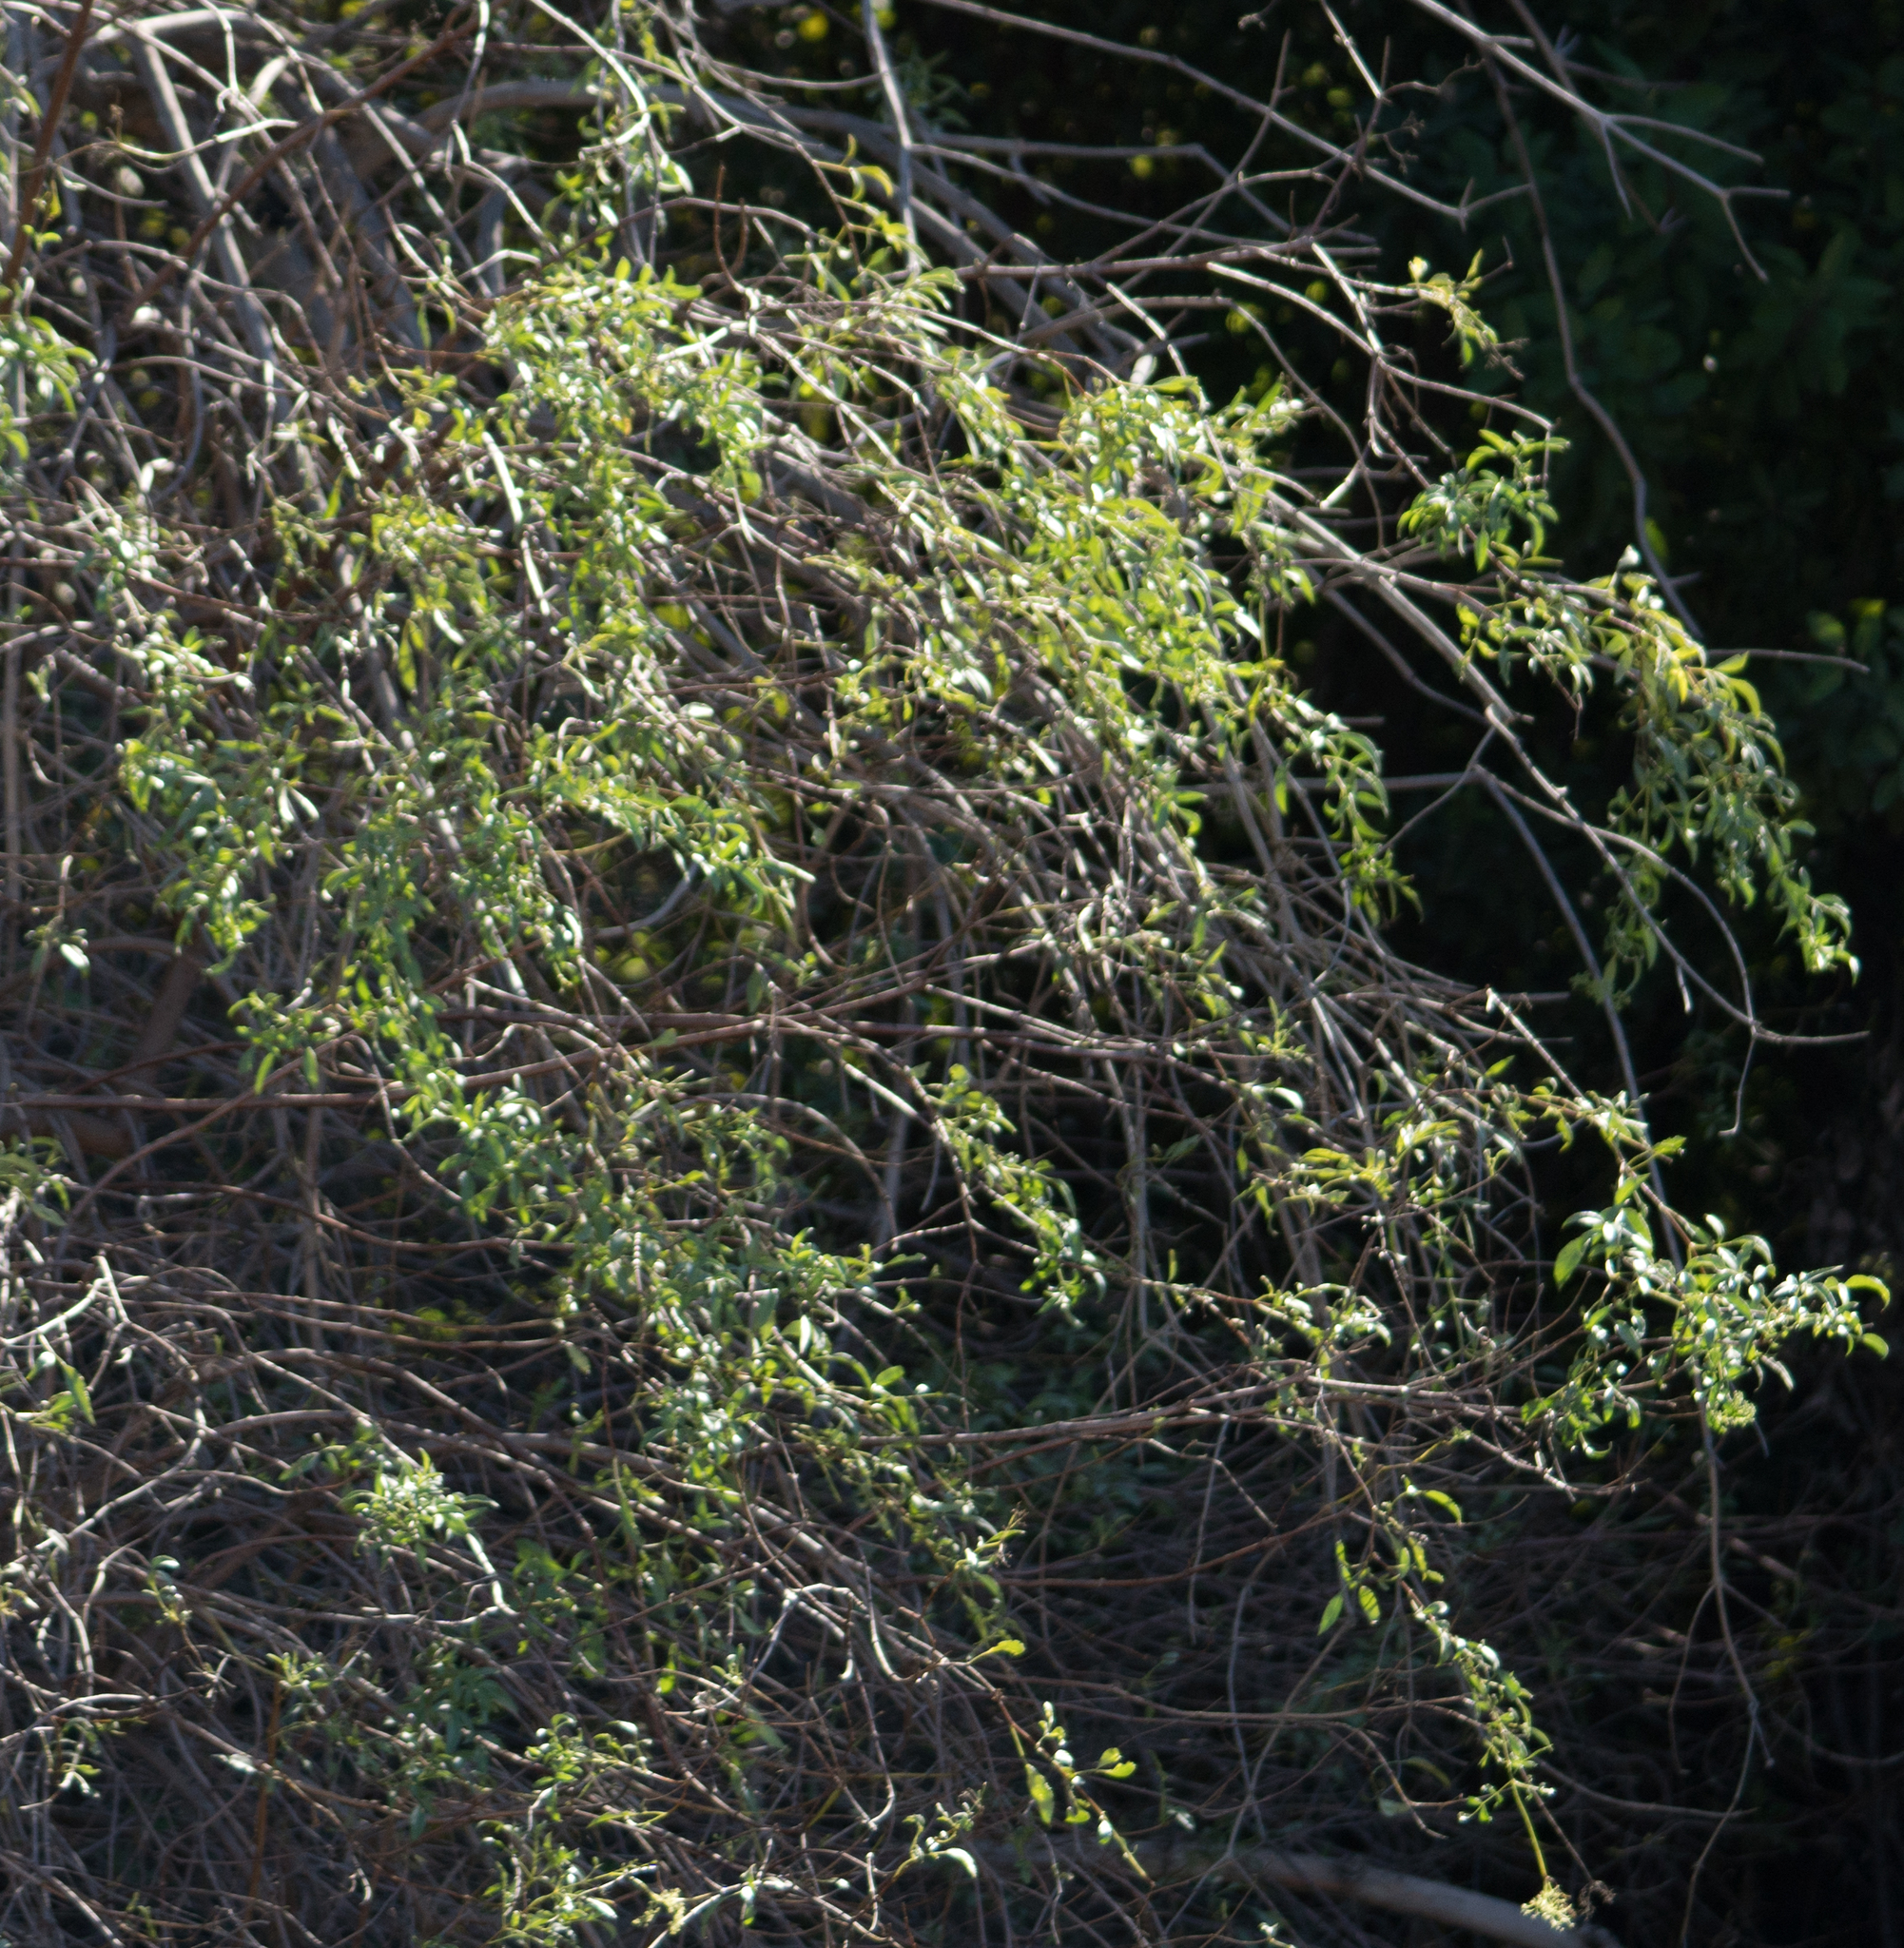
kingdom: Plantae
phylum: Tracheophyta
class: Magnoliopsida
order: Dipsacales
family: Viburnaceae
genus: Sambucus
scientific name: Sambucus cerulea
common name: Blue elder
